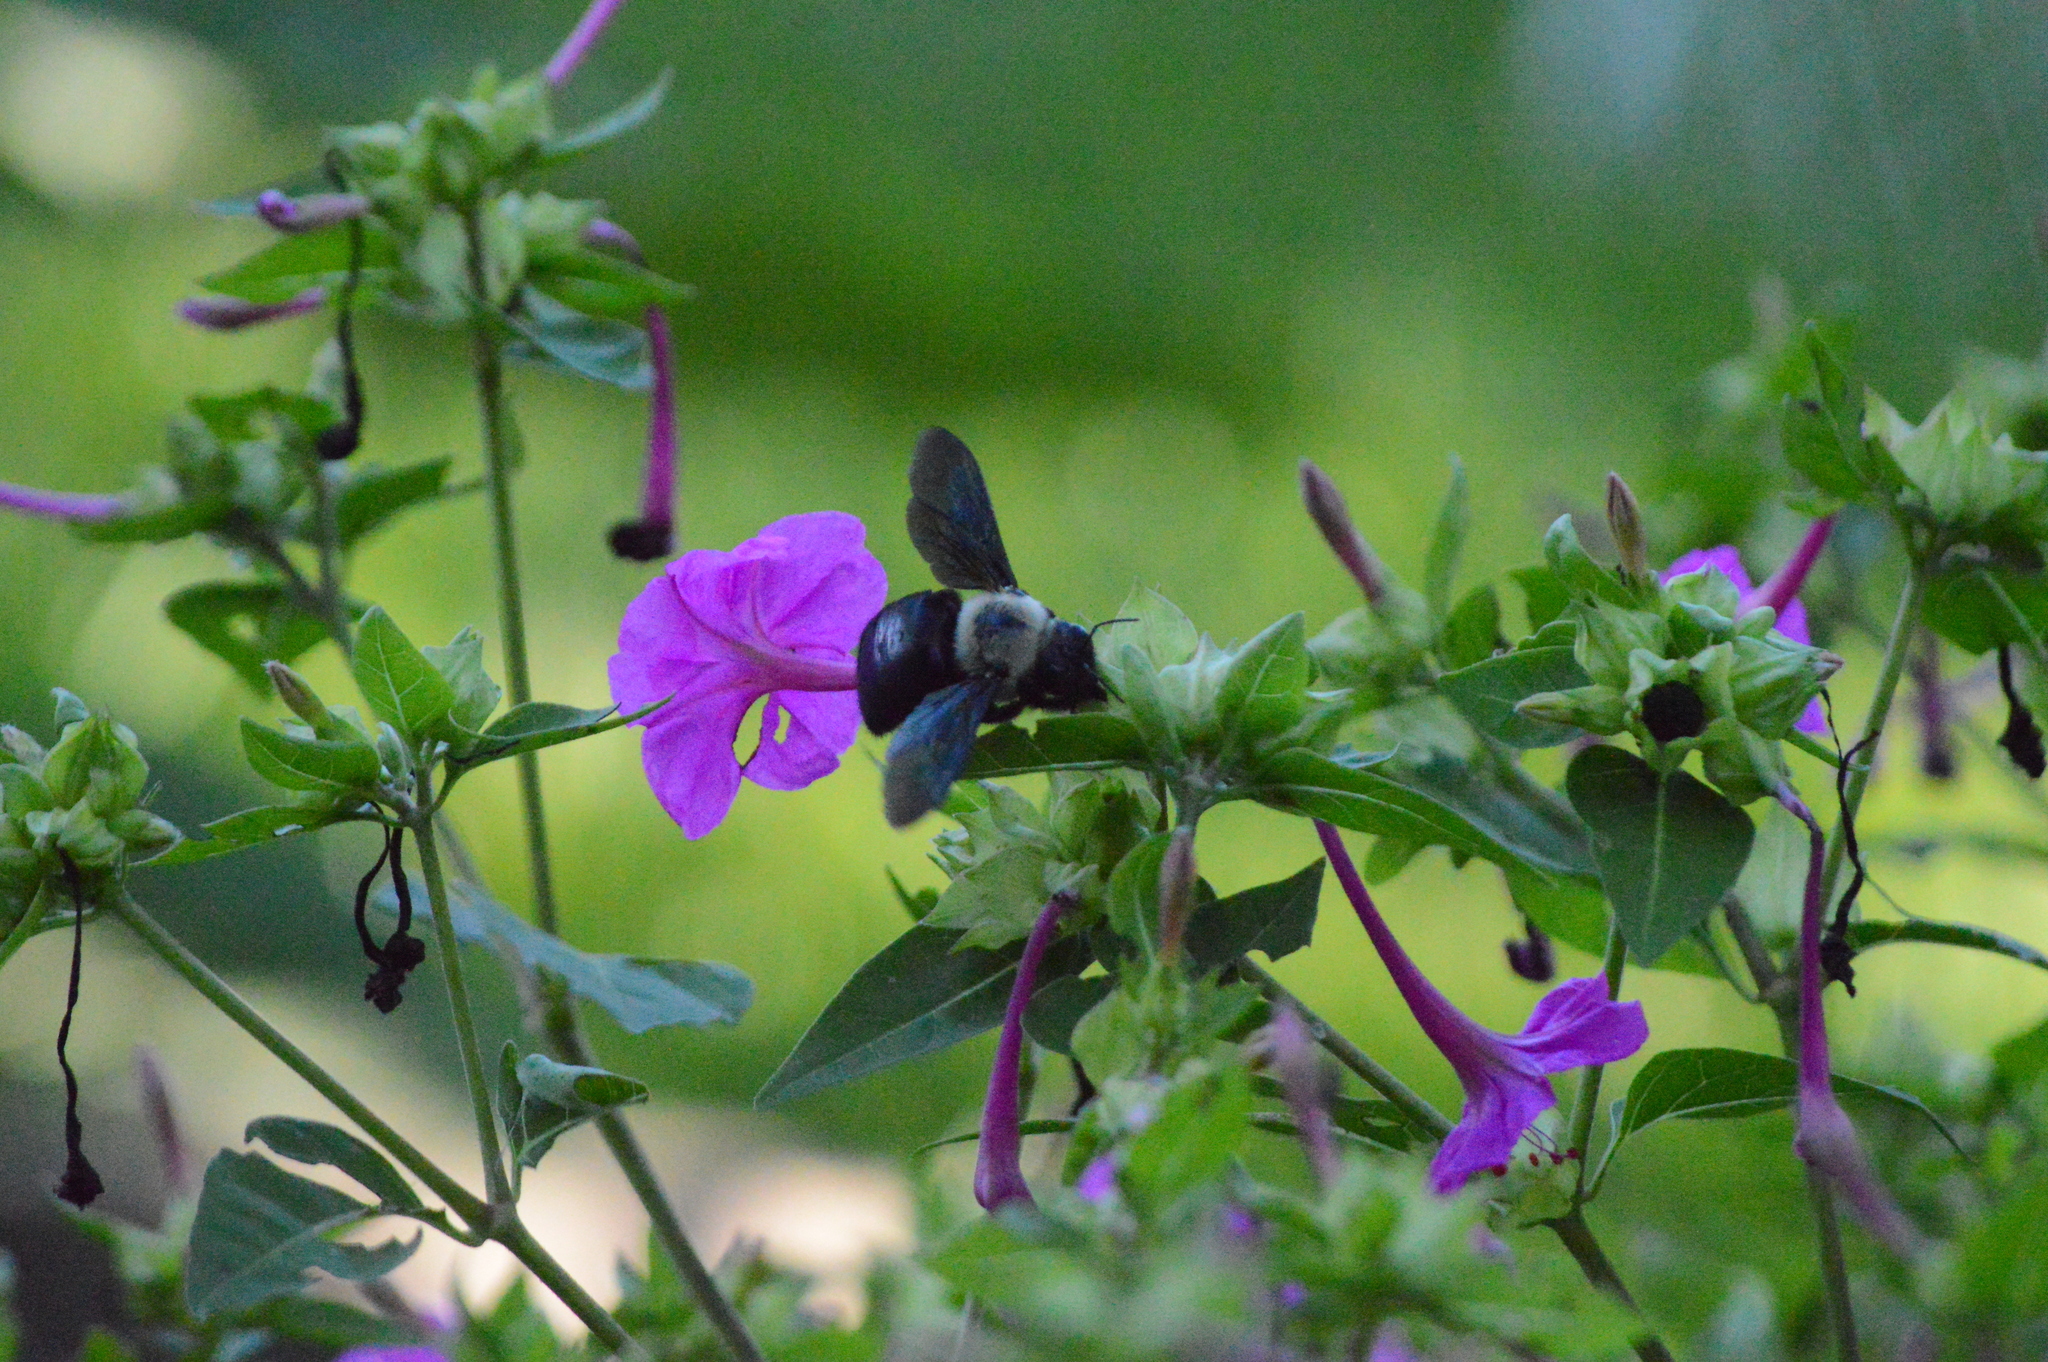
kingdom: Animalia
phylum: Arthropoda
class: Insecta
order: Hymenoptera
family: Apidae
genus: Xylocopa
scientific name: Xylocopa grisescens
